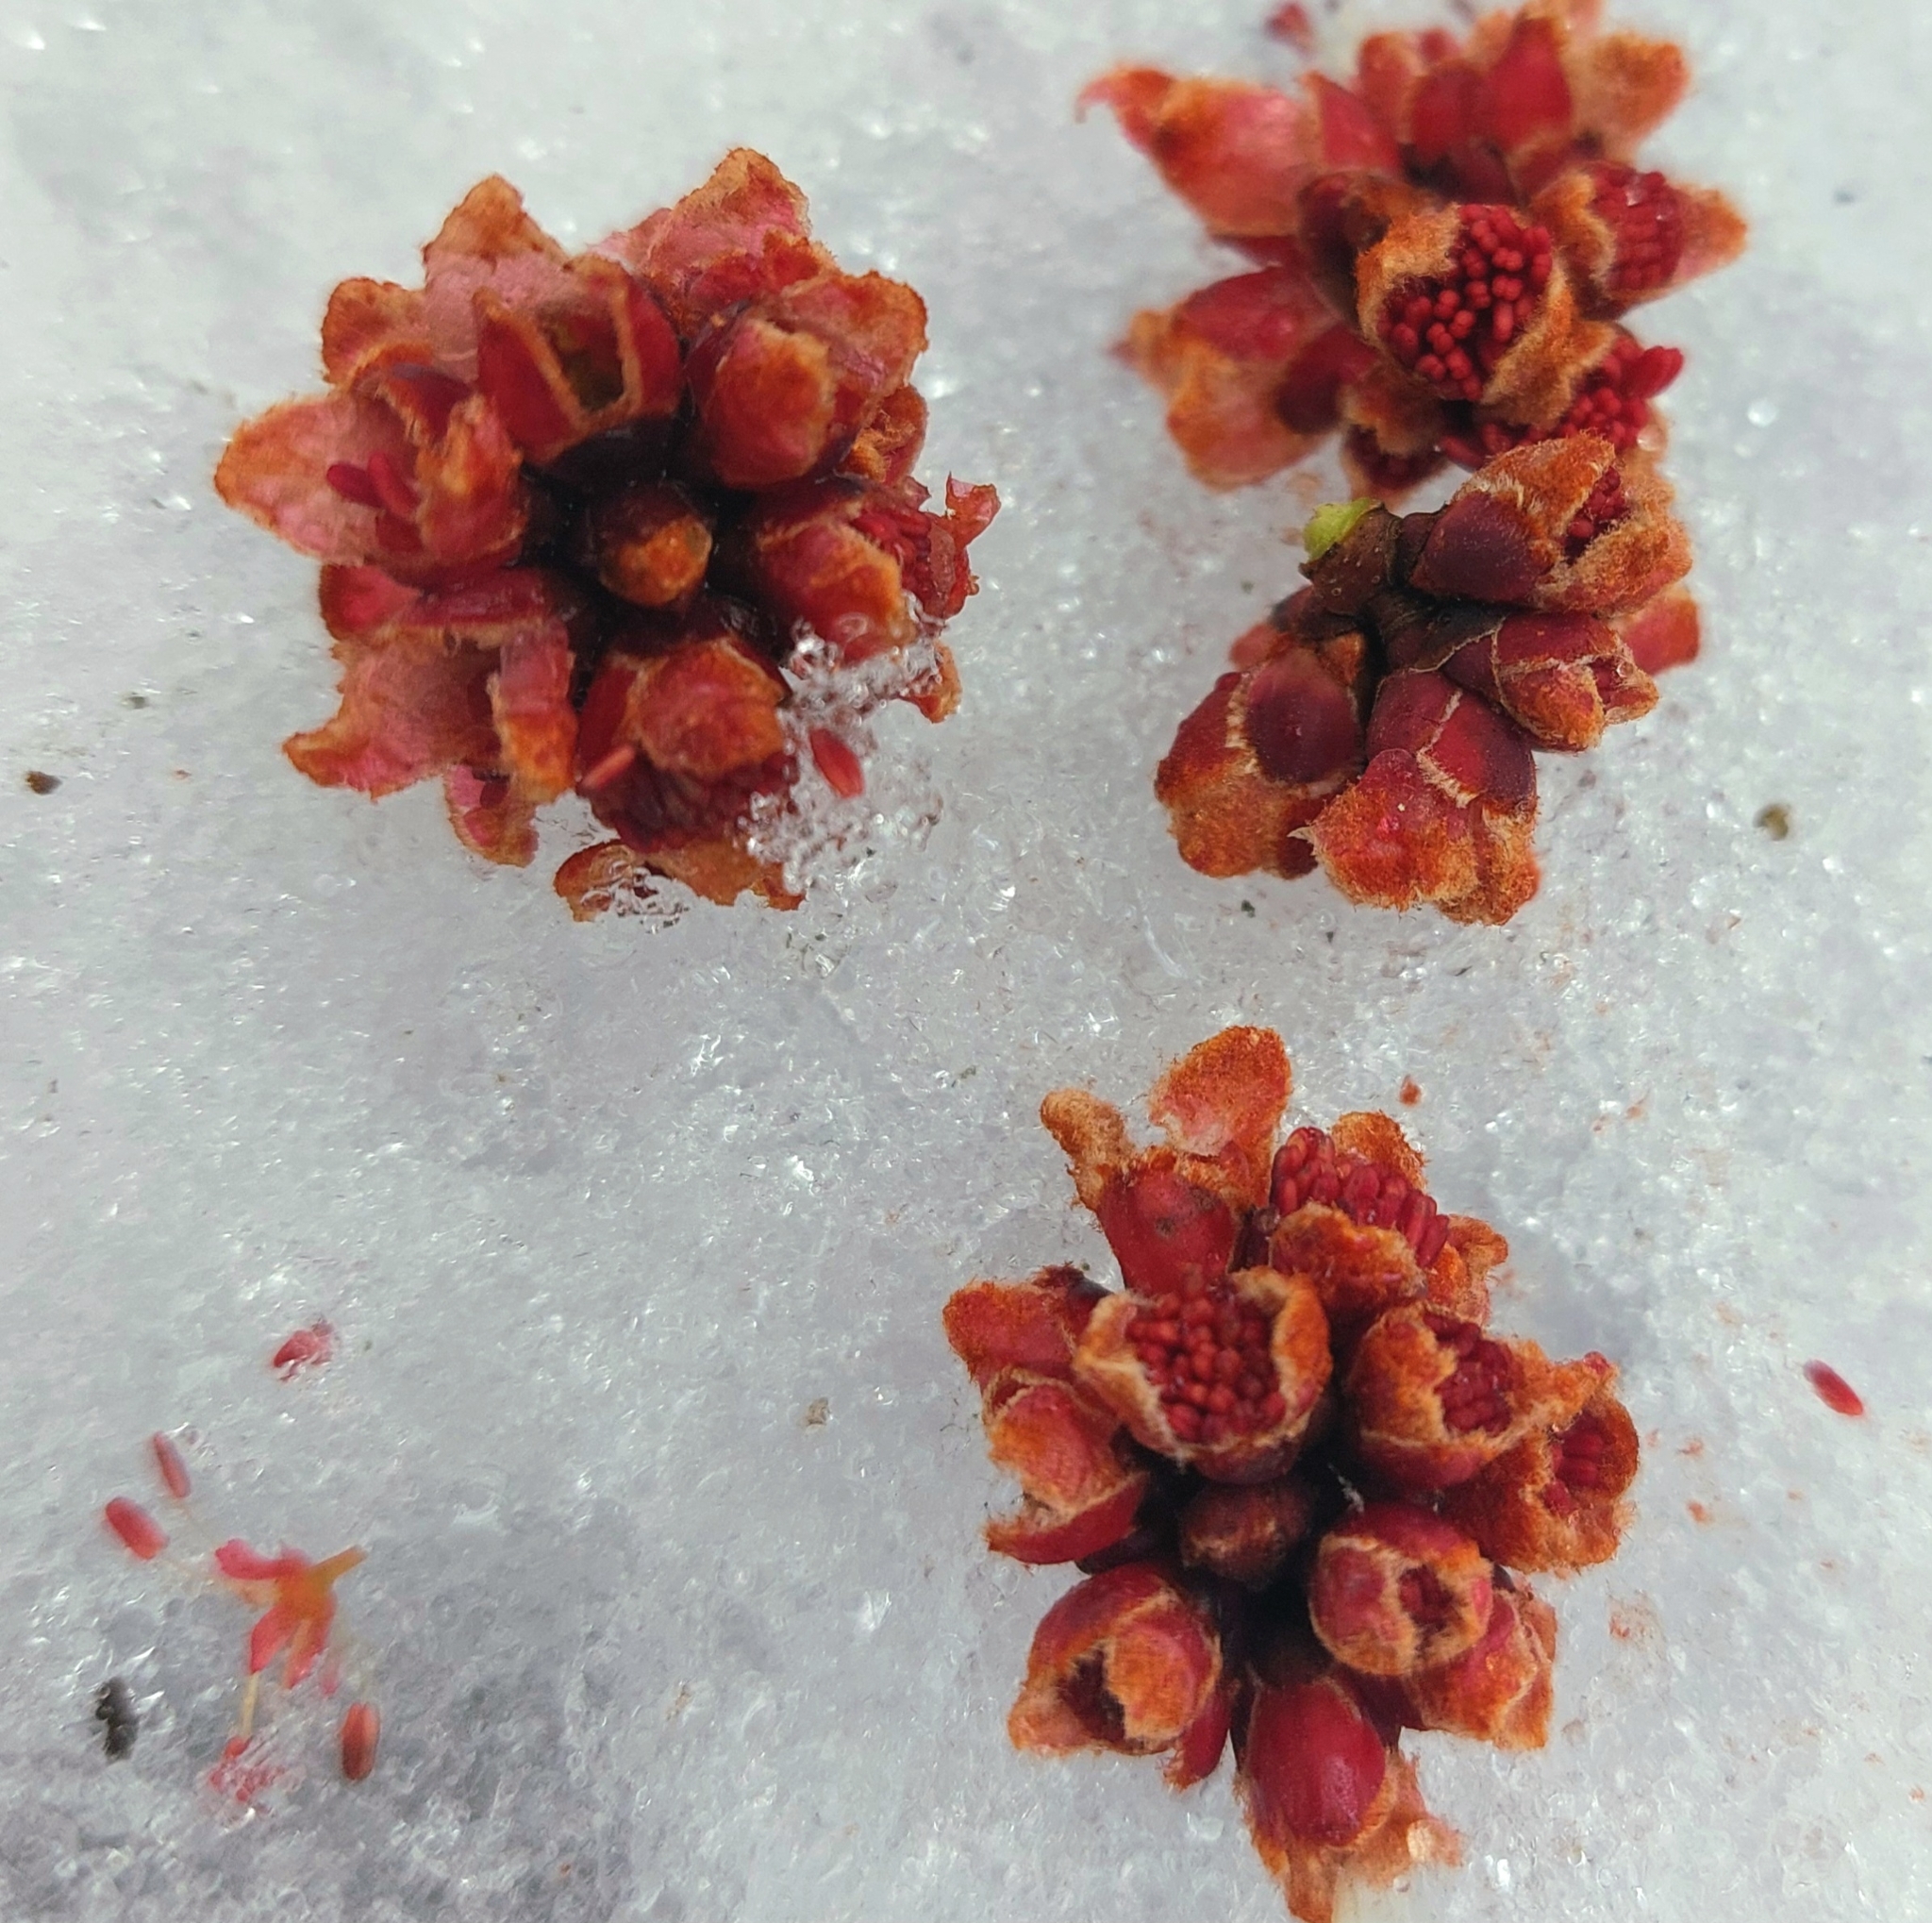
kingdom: Plantae
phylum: Tracheophyta
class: Magnoliopsida
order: Sapindales
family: Sapindaceae
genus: Acer
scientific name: Acer rubrum
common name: Red maple
